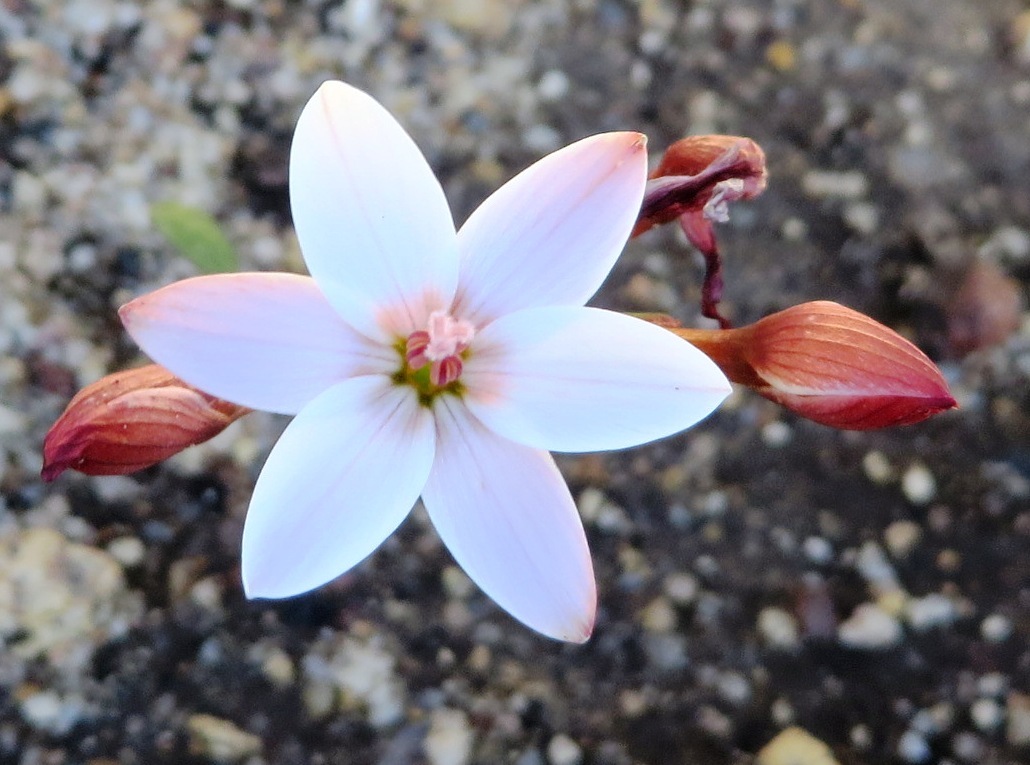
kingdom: Plantae
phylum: Tracheophyta
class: Liliopsida
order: Asparagales
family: Iridaceae
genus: Geissorhiza
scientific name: Geissorhiza ovata
